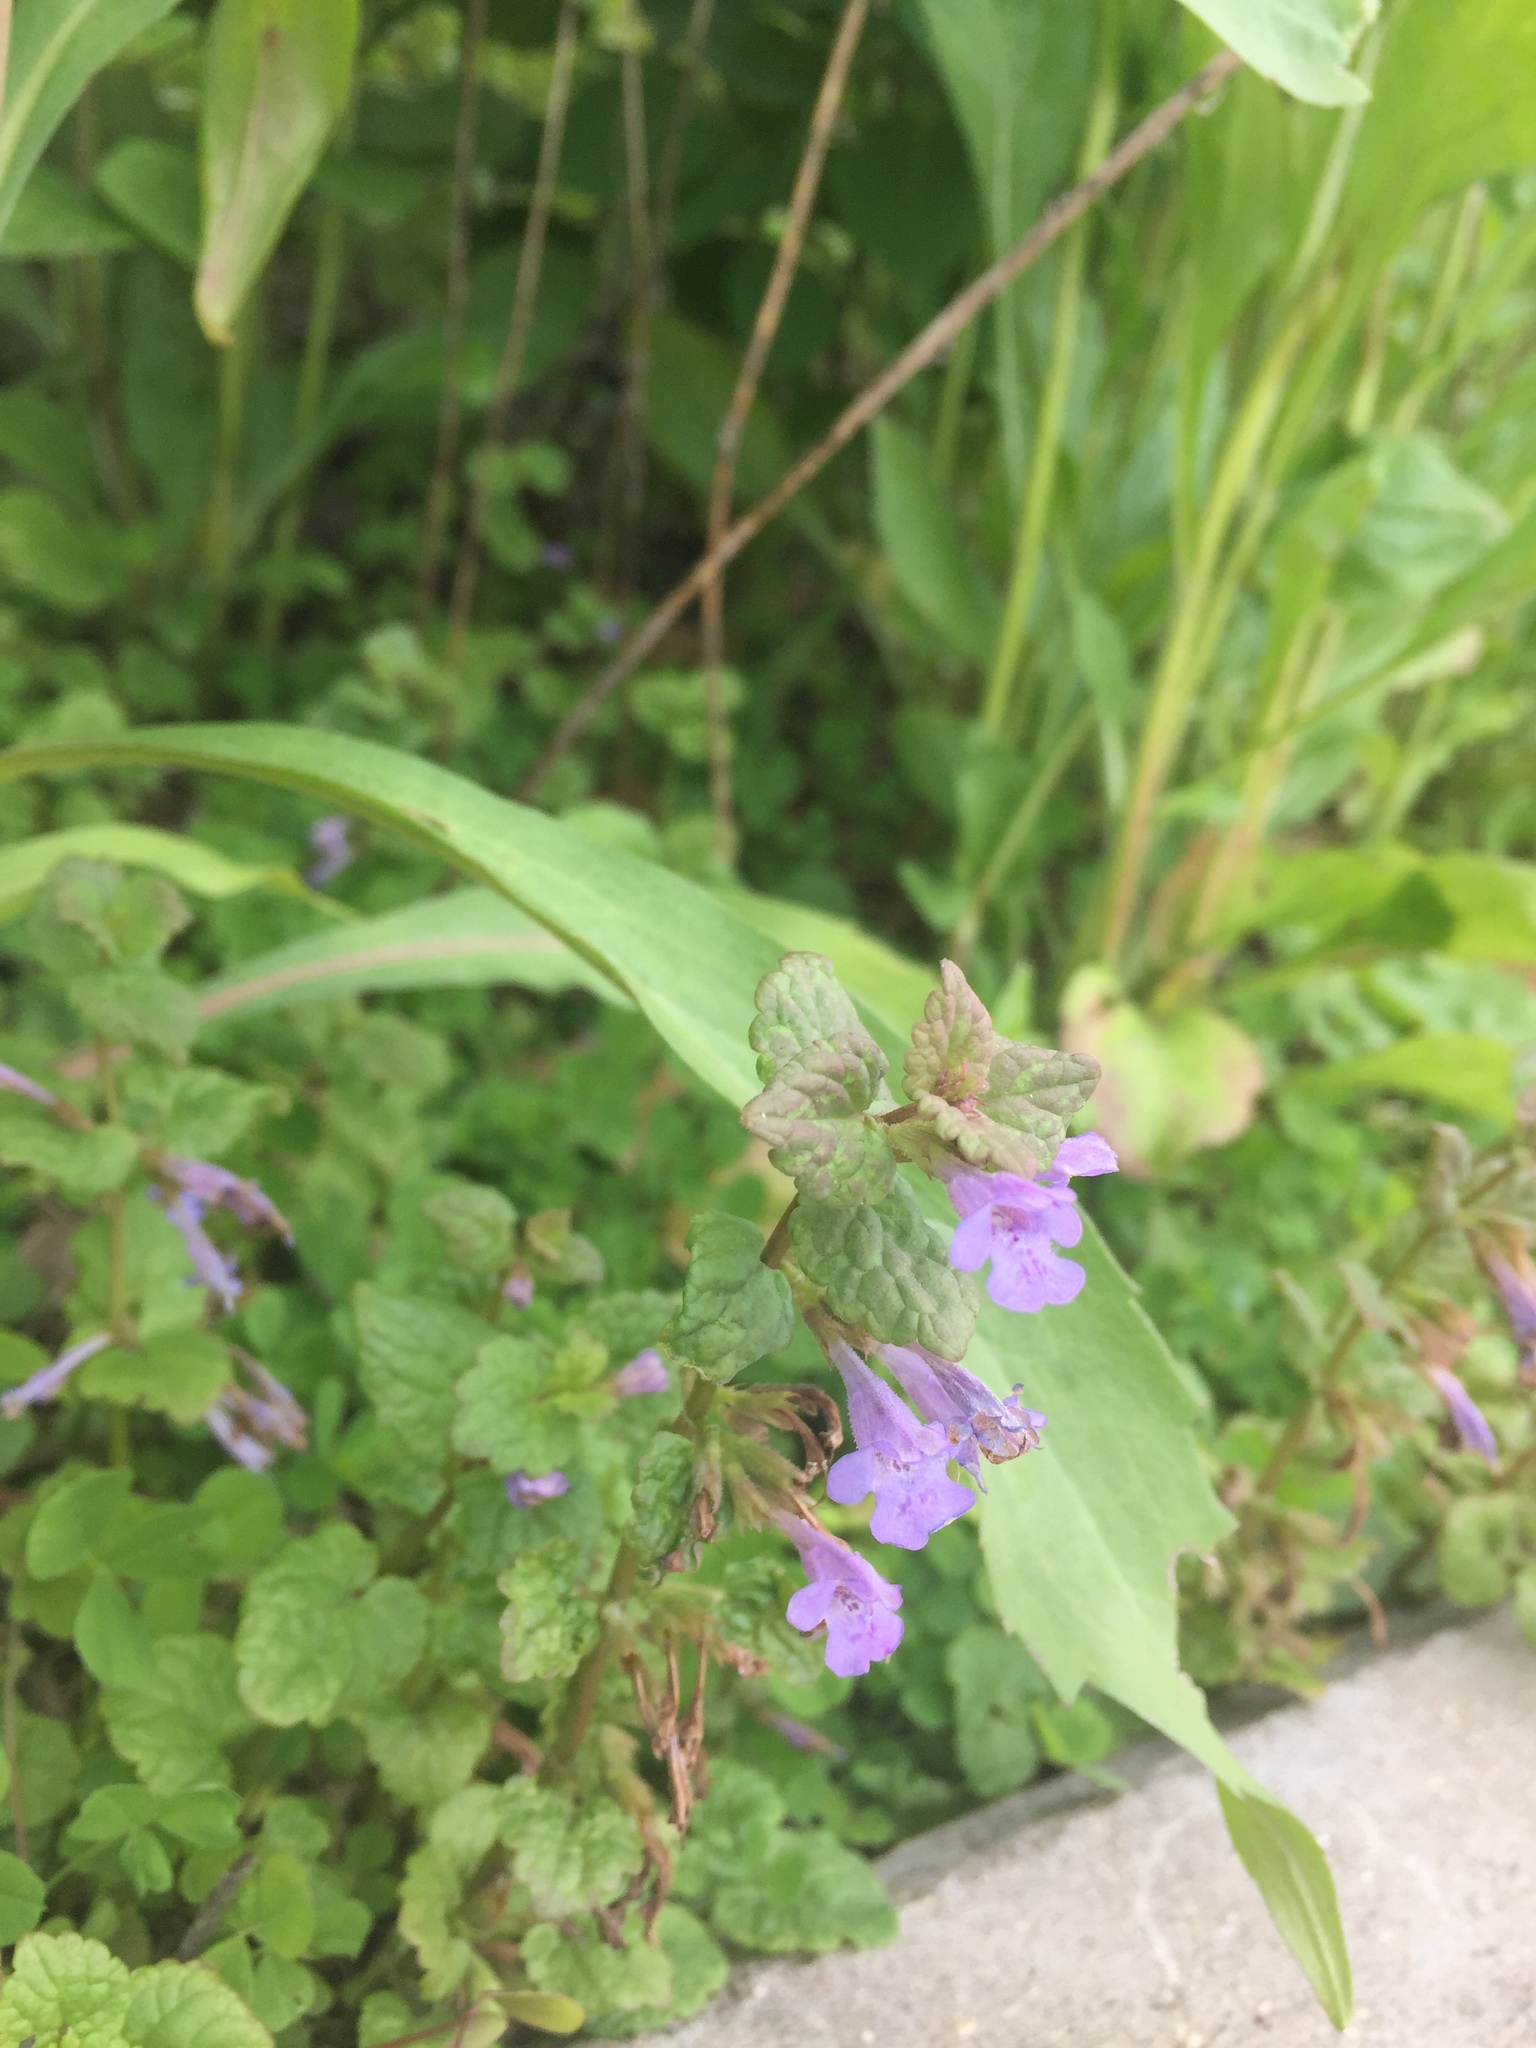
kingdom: Plantae
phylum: Tracheophyta
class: Magnoliopsida
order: Lamiales
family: Lamiaceae
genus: Glechoma
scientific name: Glechoma hederacea
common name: Ground ivy
